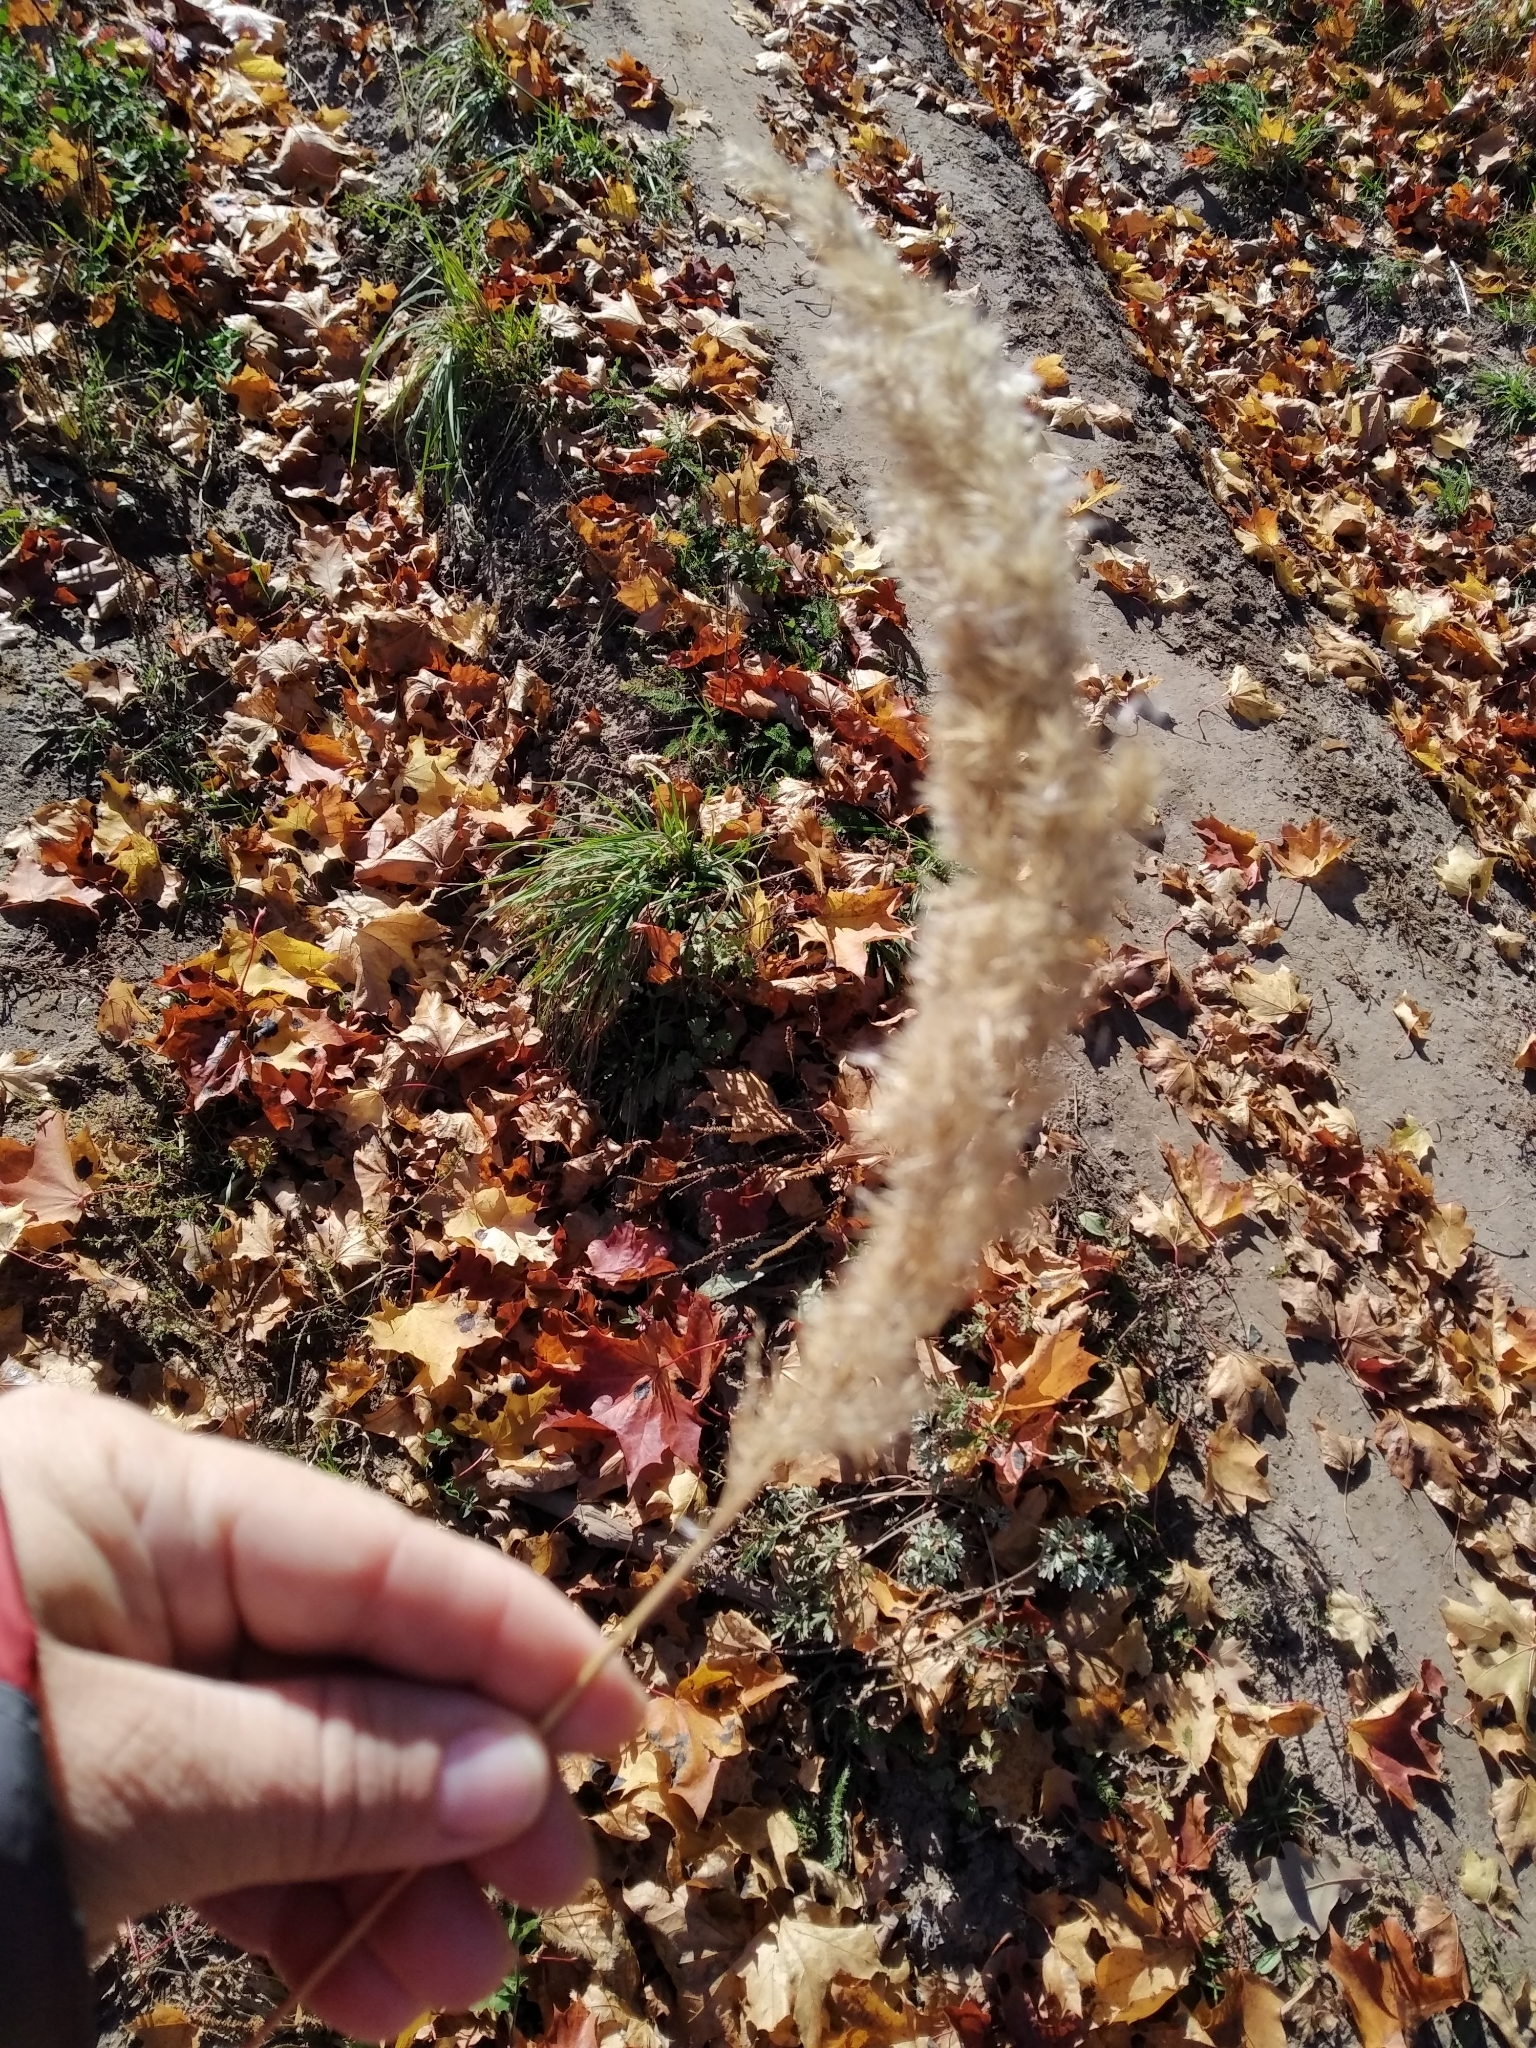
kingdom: Plantae
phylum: Tracheophyta
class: Liliopsida
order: Poales
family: Poaceae
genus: Calamagrostis
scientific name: Calamagrostis epigejos
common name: Wood small-reed
